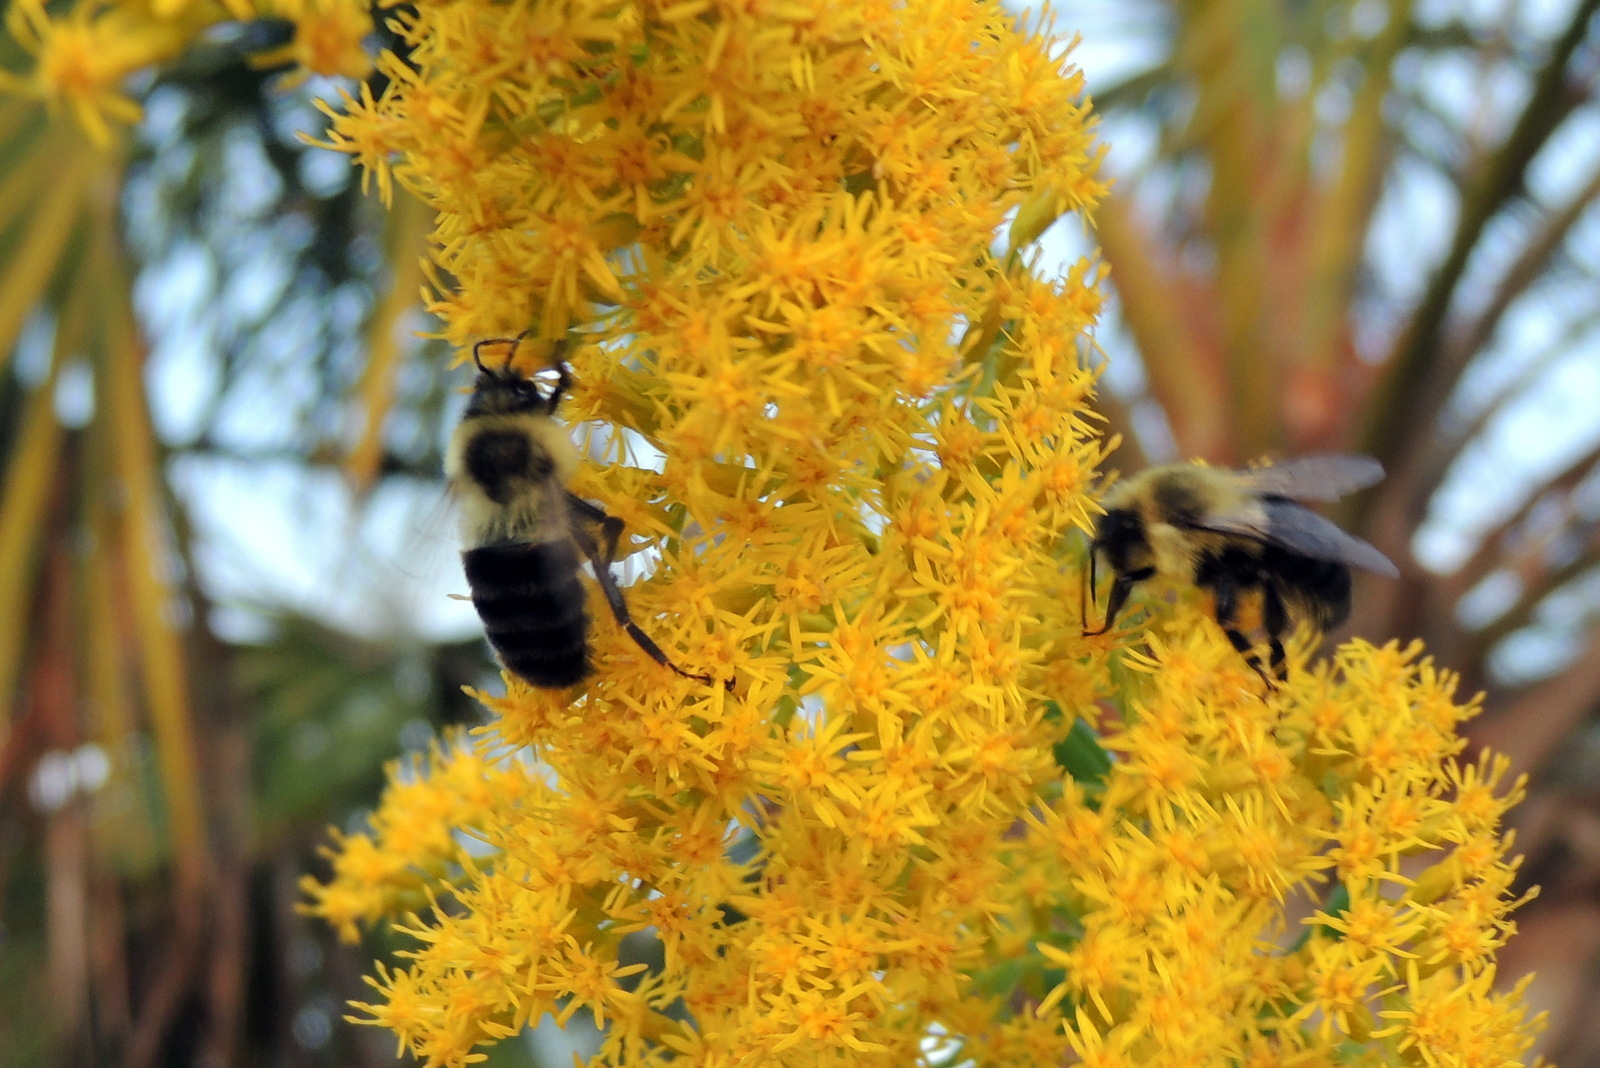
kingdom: Animalia
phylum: Arthropoda
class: Insecta
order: Hymenoptera
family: Apidae
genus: Bombus
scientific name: Bombus impatiens
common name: Common eastern bumble bee
